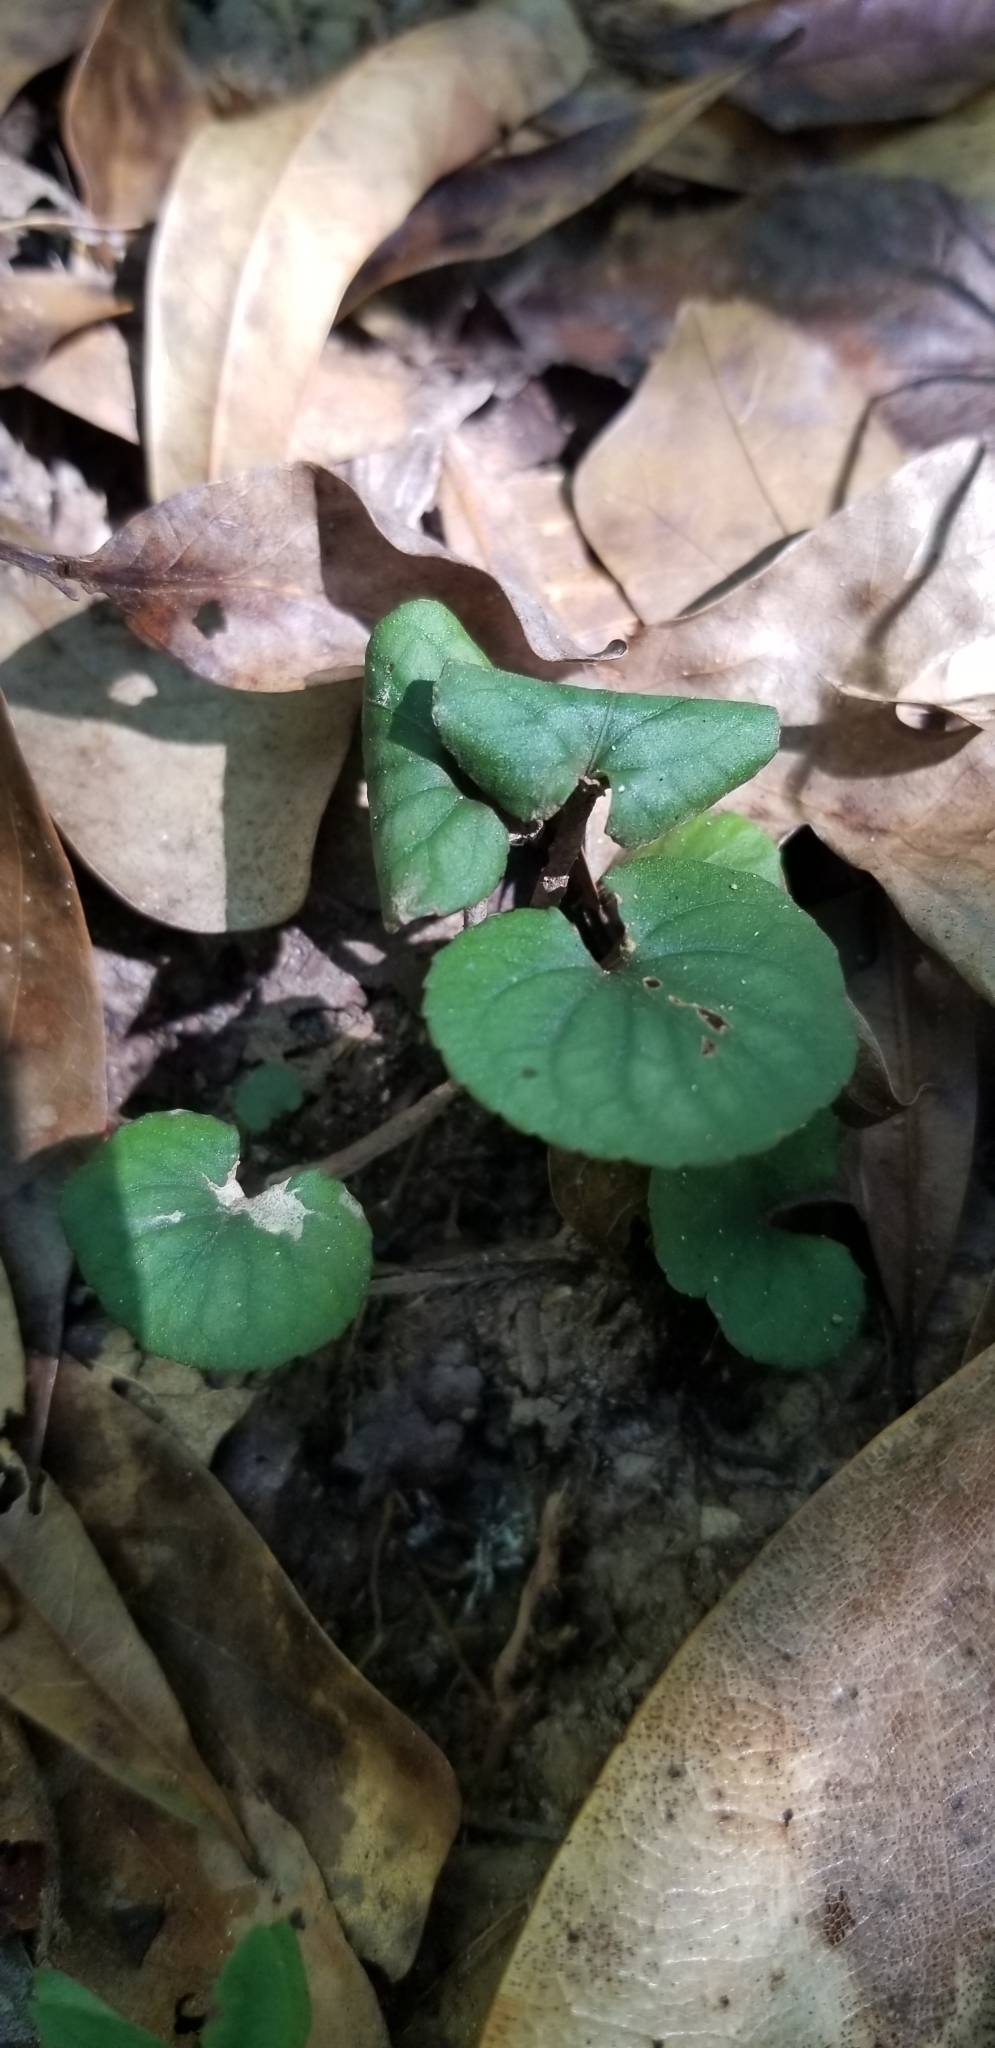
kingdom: Plantae
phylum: Tracheophyta
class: Magnoliopsida
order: Malpighiales
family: Violaceae
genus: Viola
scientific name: Viola walteri
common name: Prostrate southern violet
